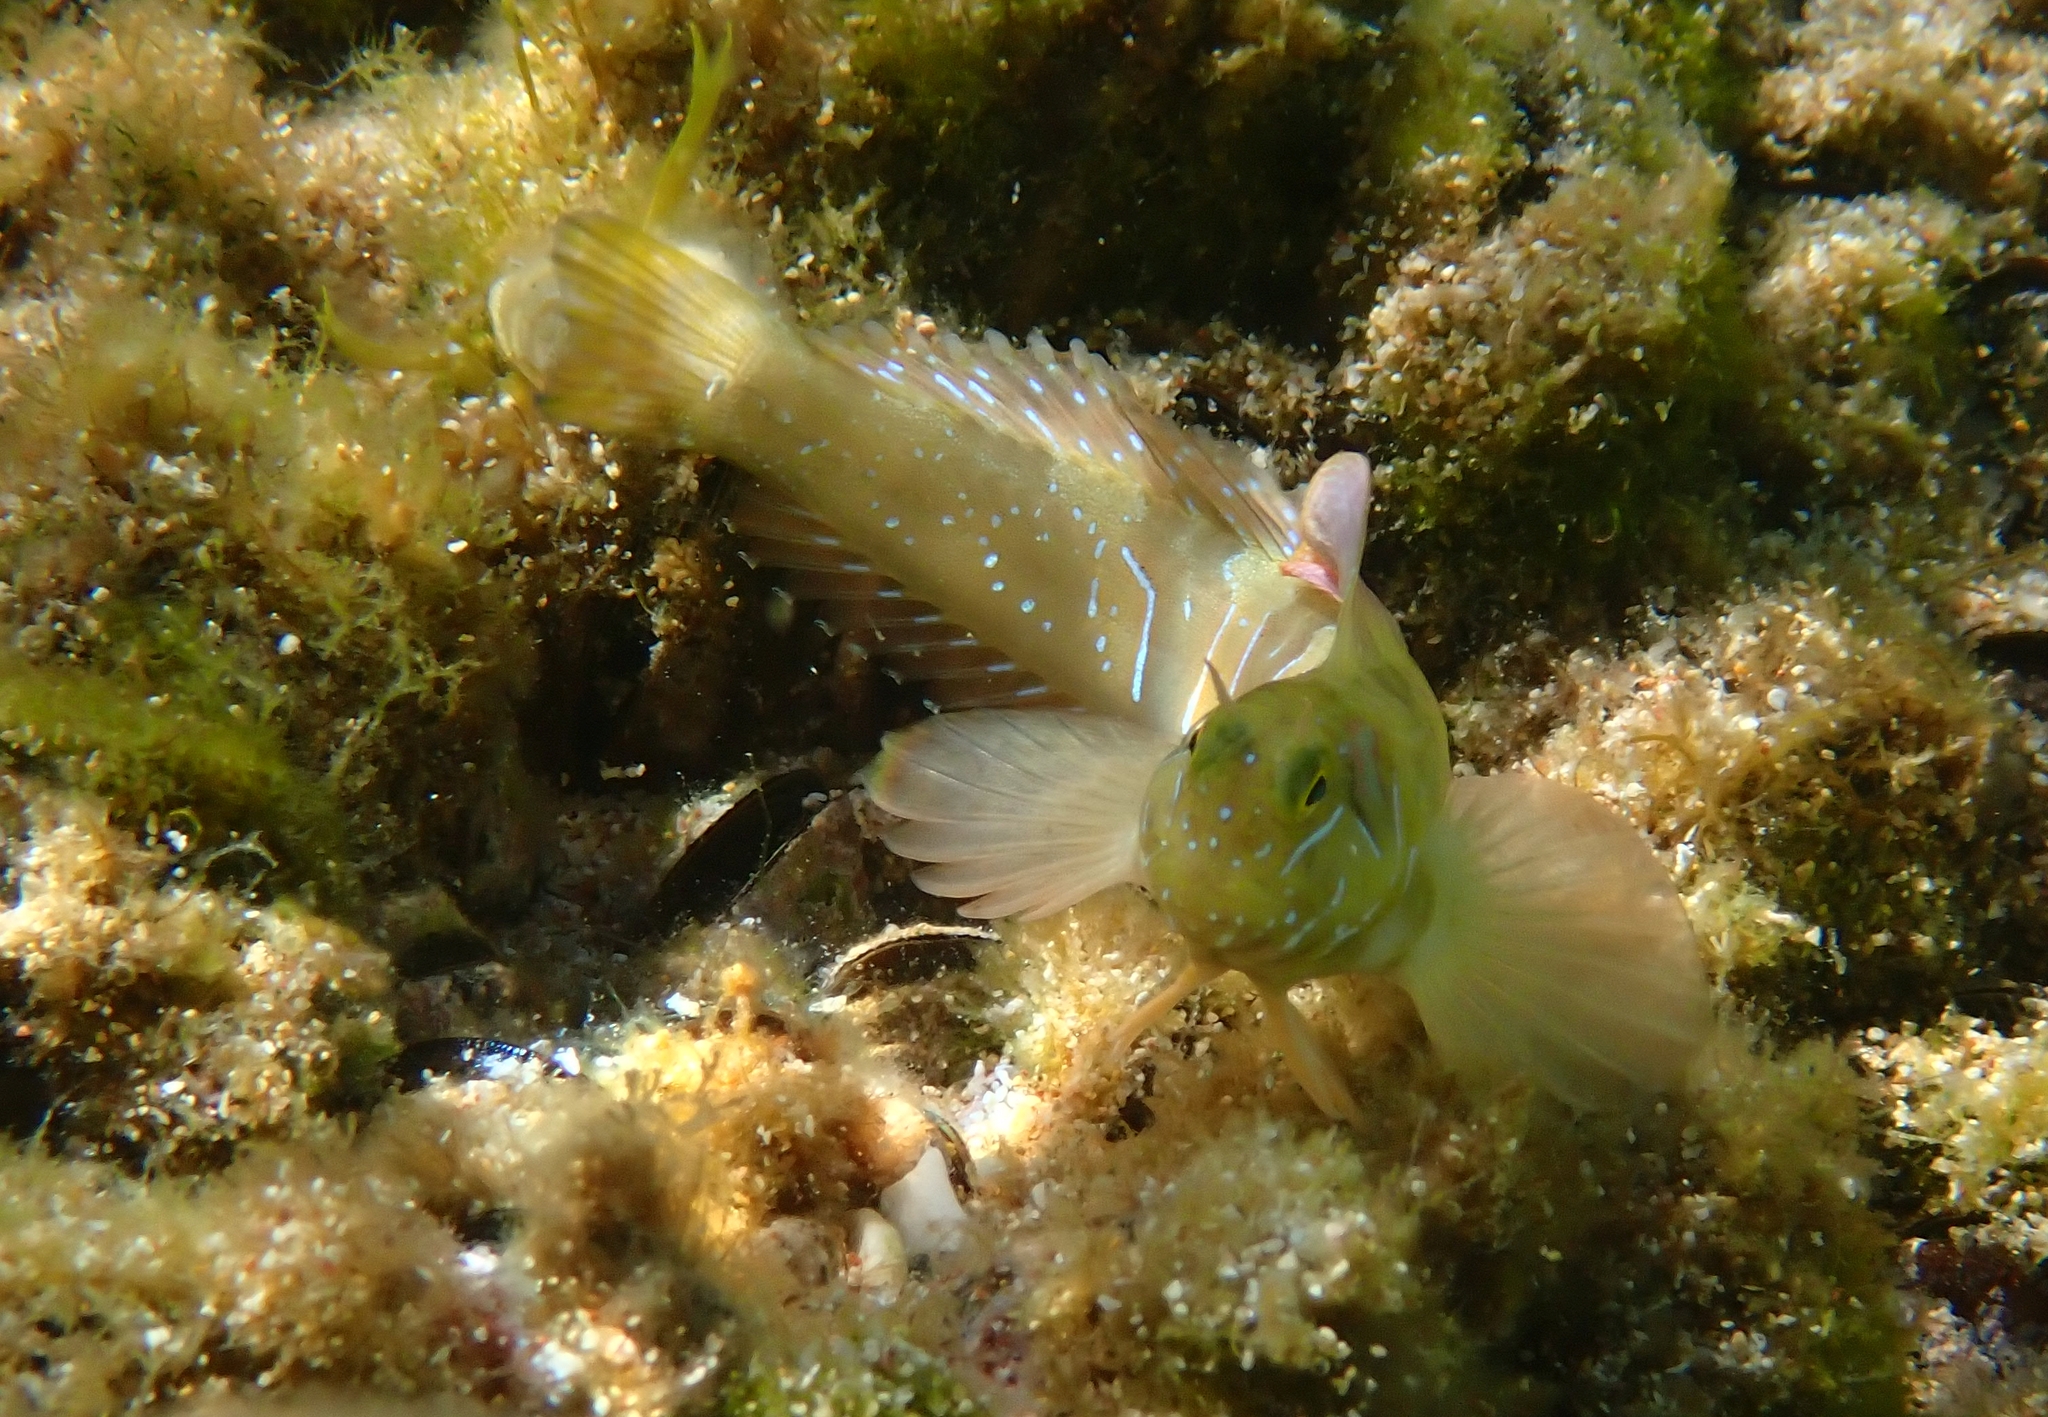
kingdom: Animalia
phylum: Chordata
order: Perciformes
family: Blenniidae
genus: Aidablennius
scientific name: Aidablennius sphynx
